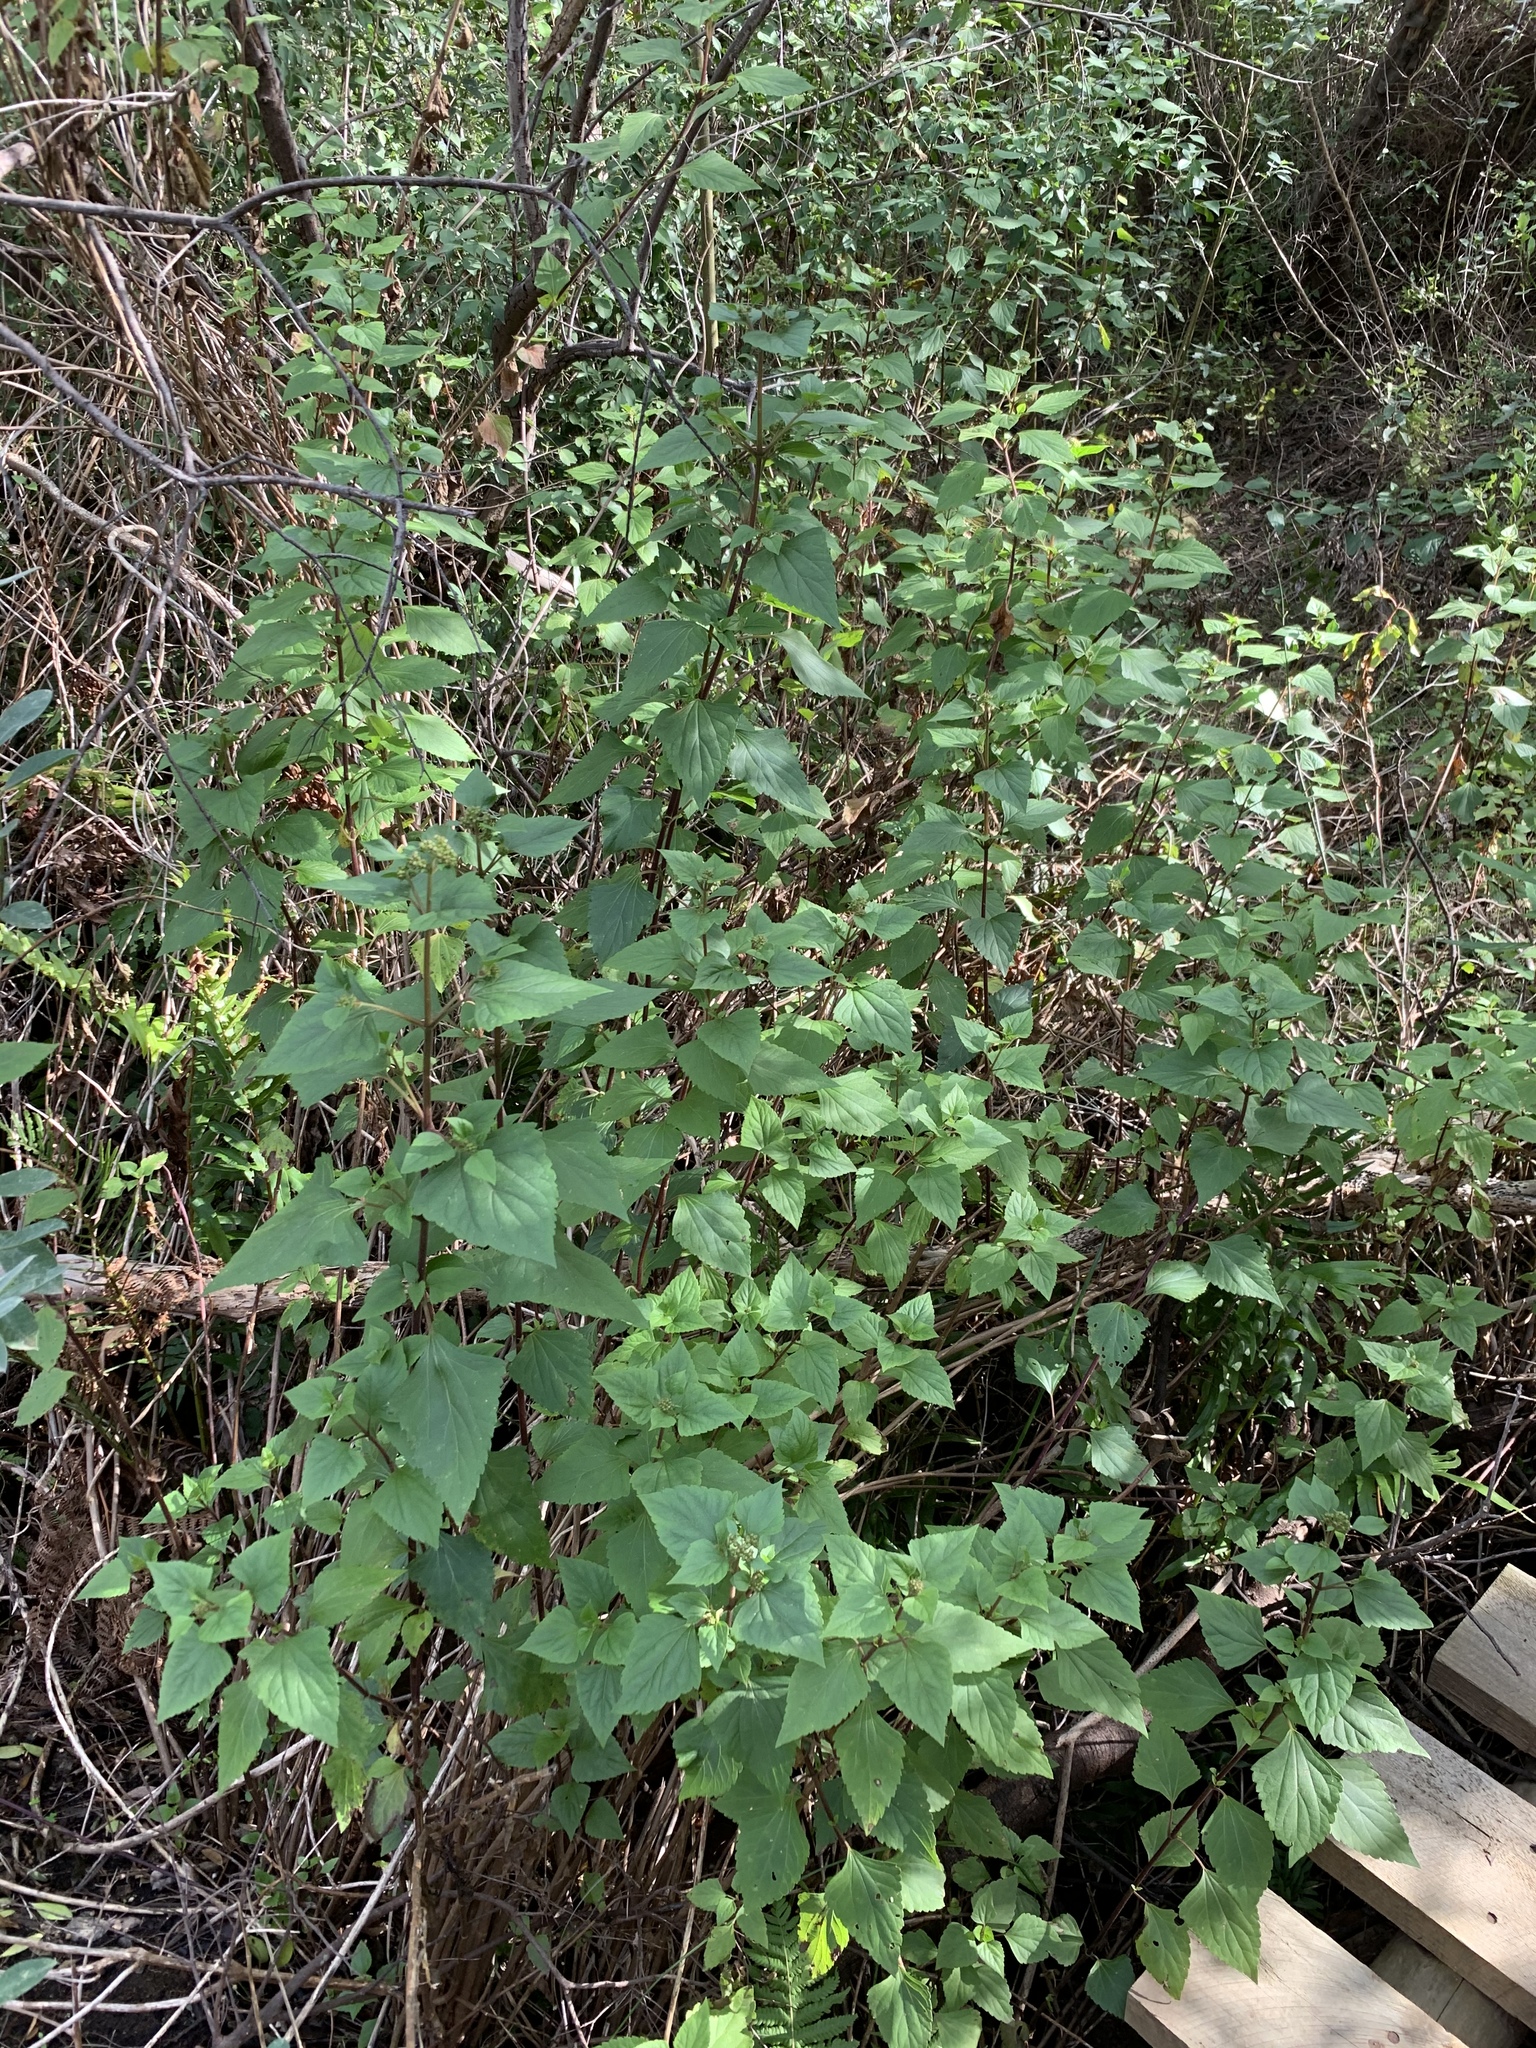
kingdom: Plantae
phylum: Tracheophyta
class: Magnoliopsida
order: Asterales
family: Asteraceae
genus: Ageratina
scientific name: Ageratina adenophora
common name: Sticky snakeroot
